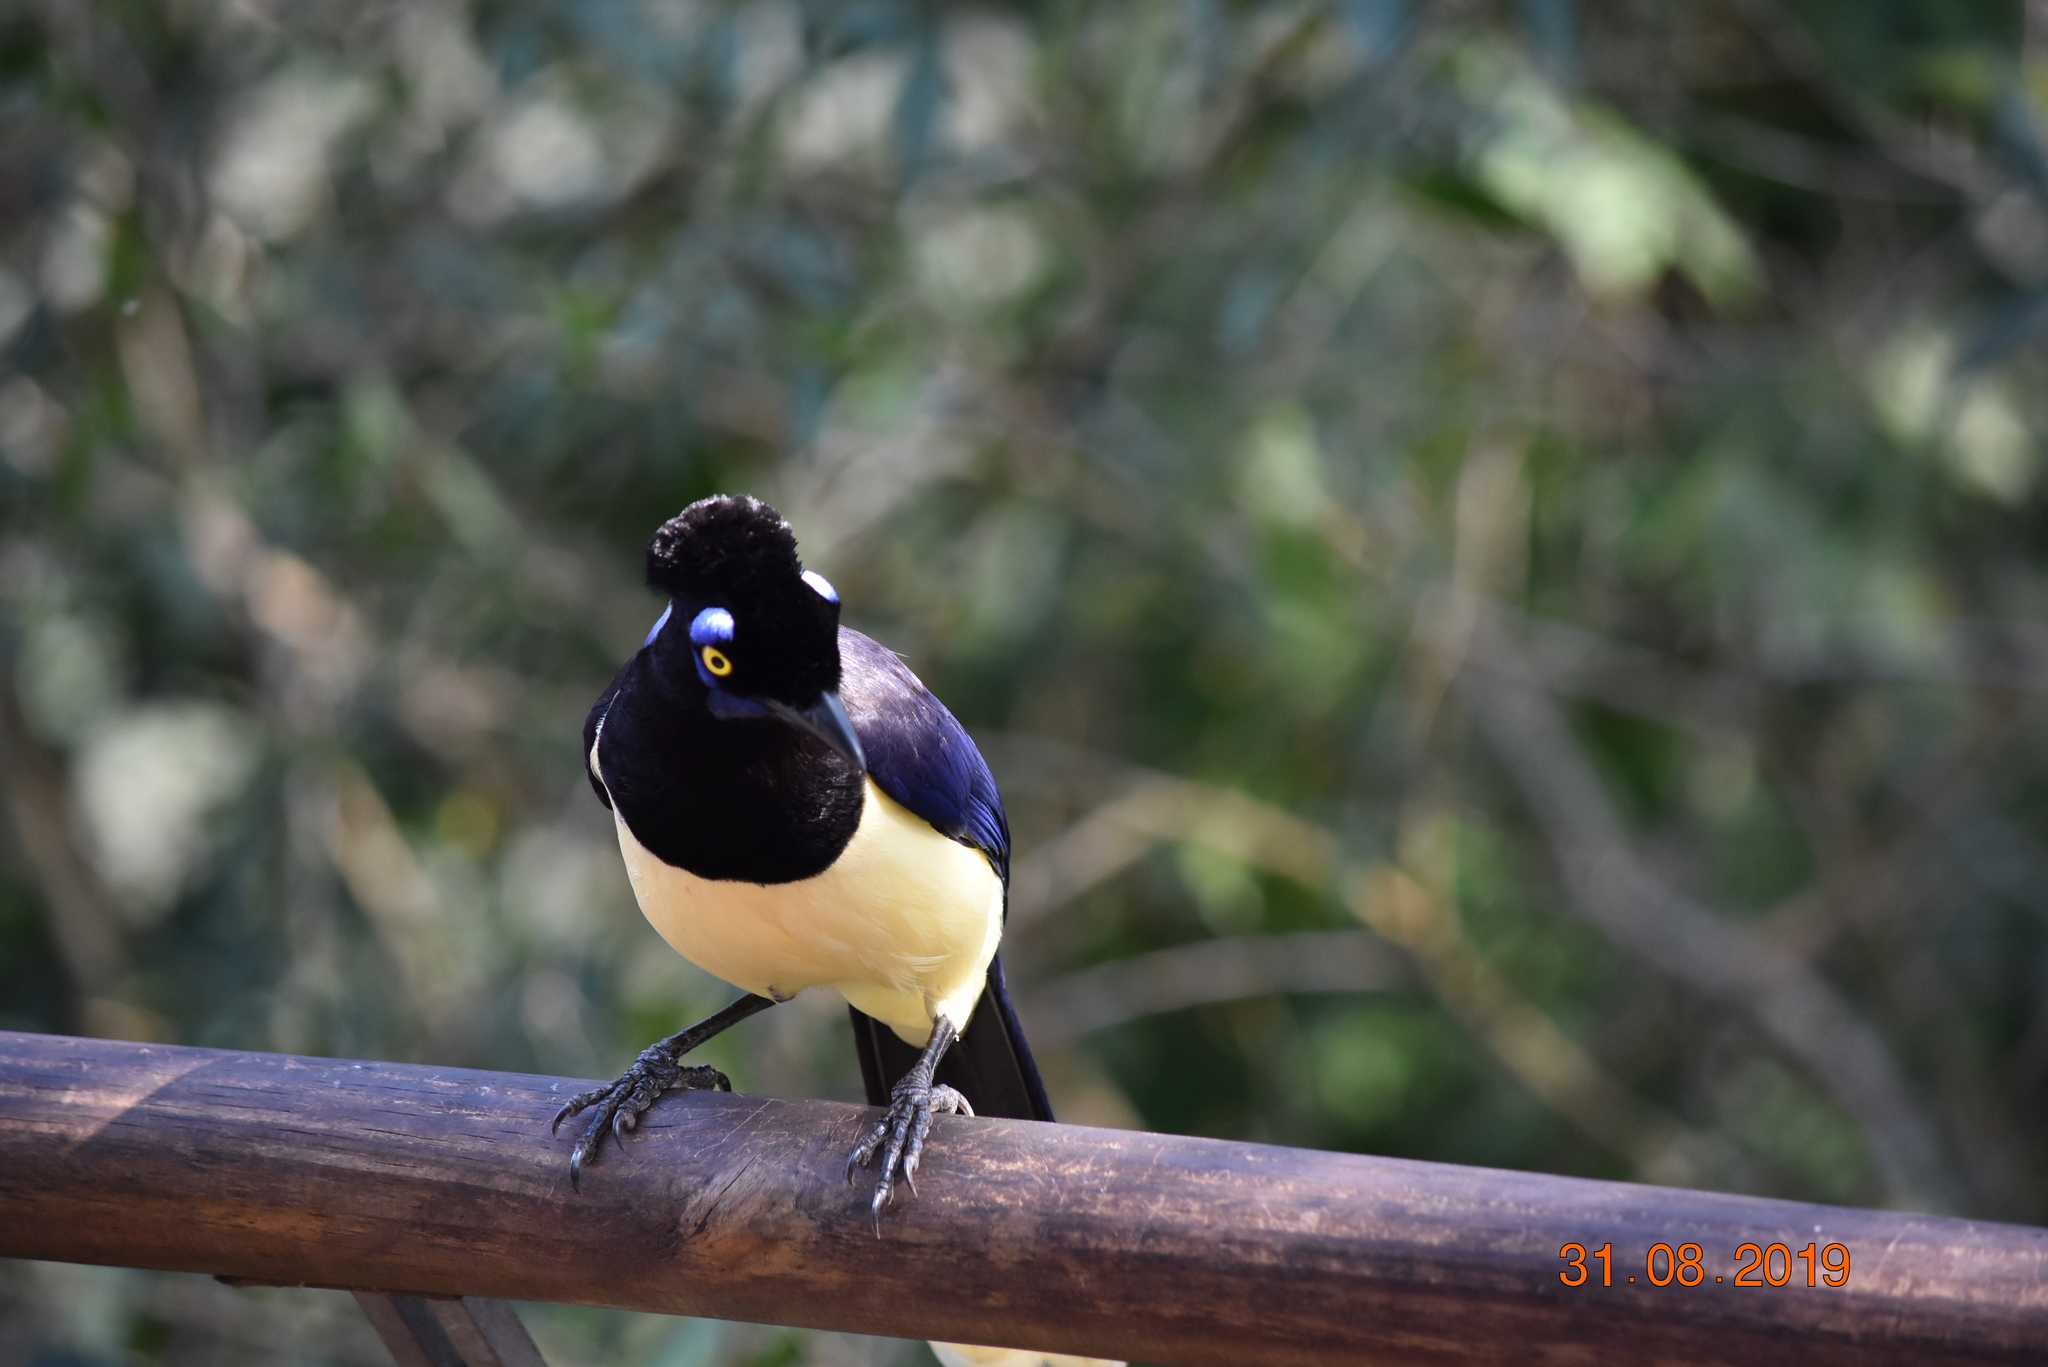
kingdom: Animalia
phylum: Chordata
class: Aves
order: Passeriformes
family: Corvidae
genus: Cyanocorax
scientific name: Cyanocorax chrysops
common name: Plush-crested jay
